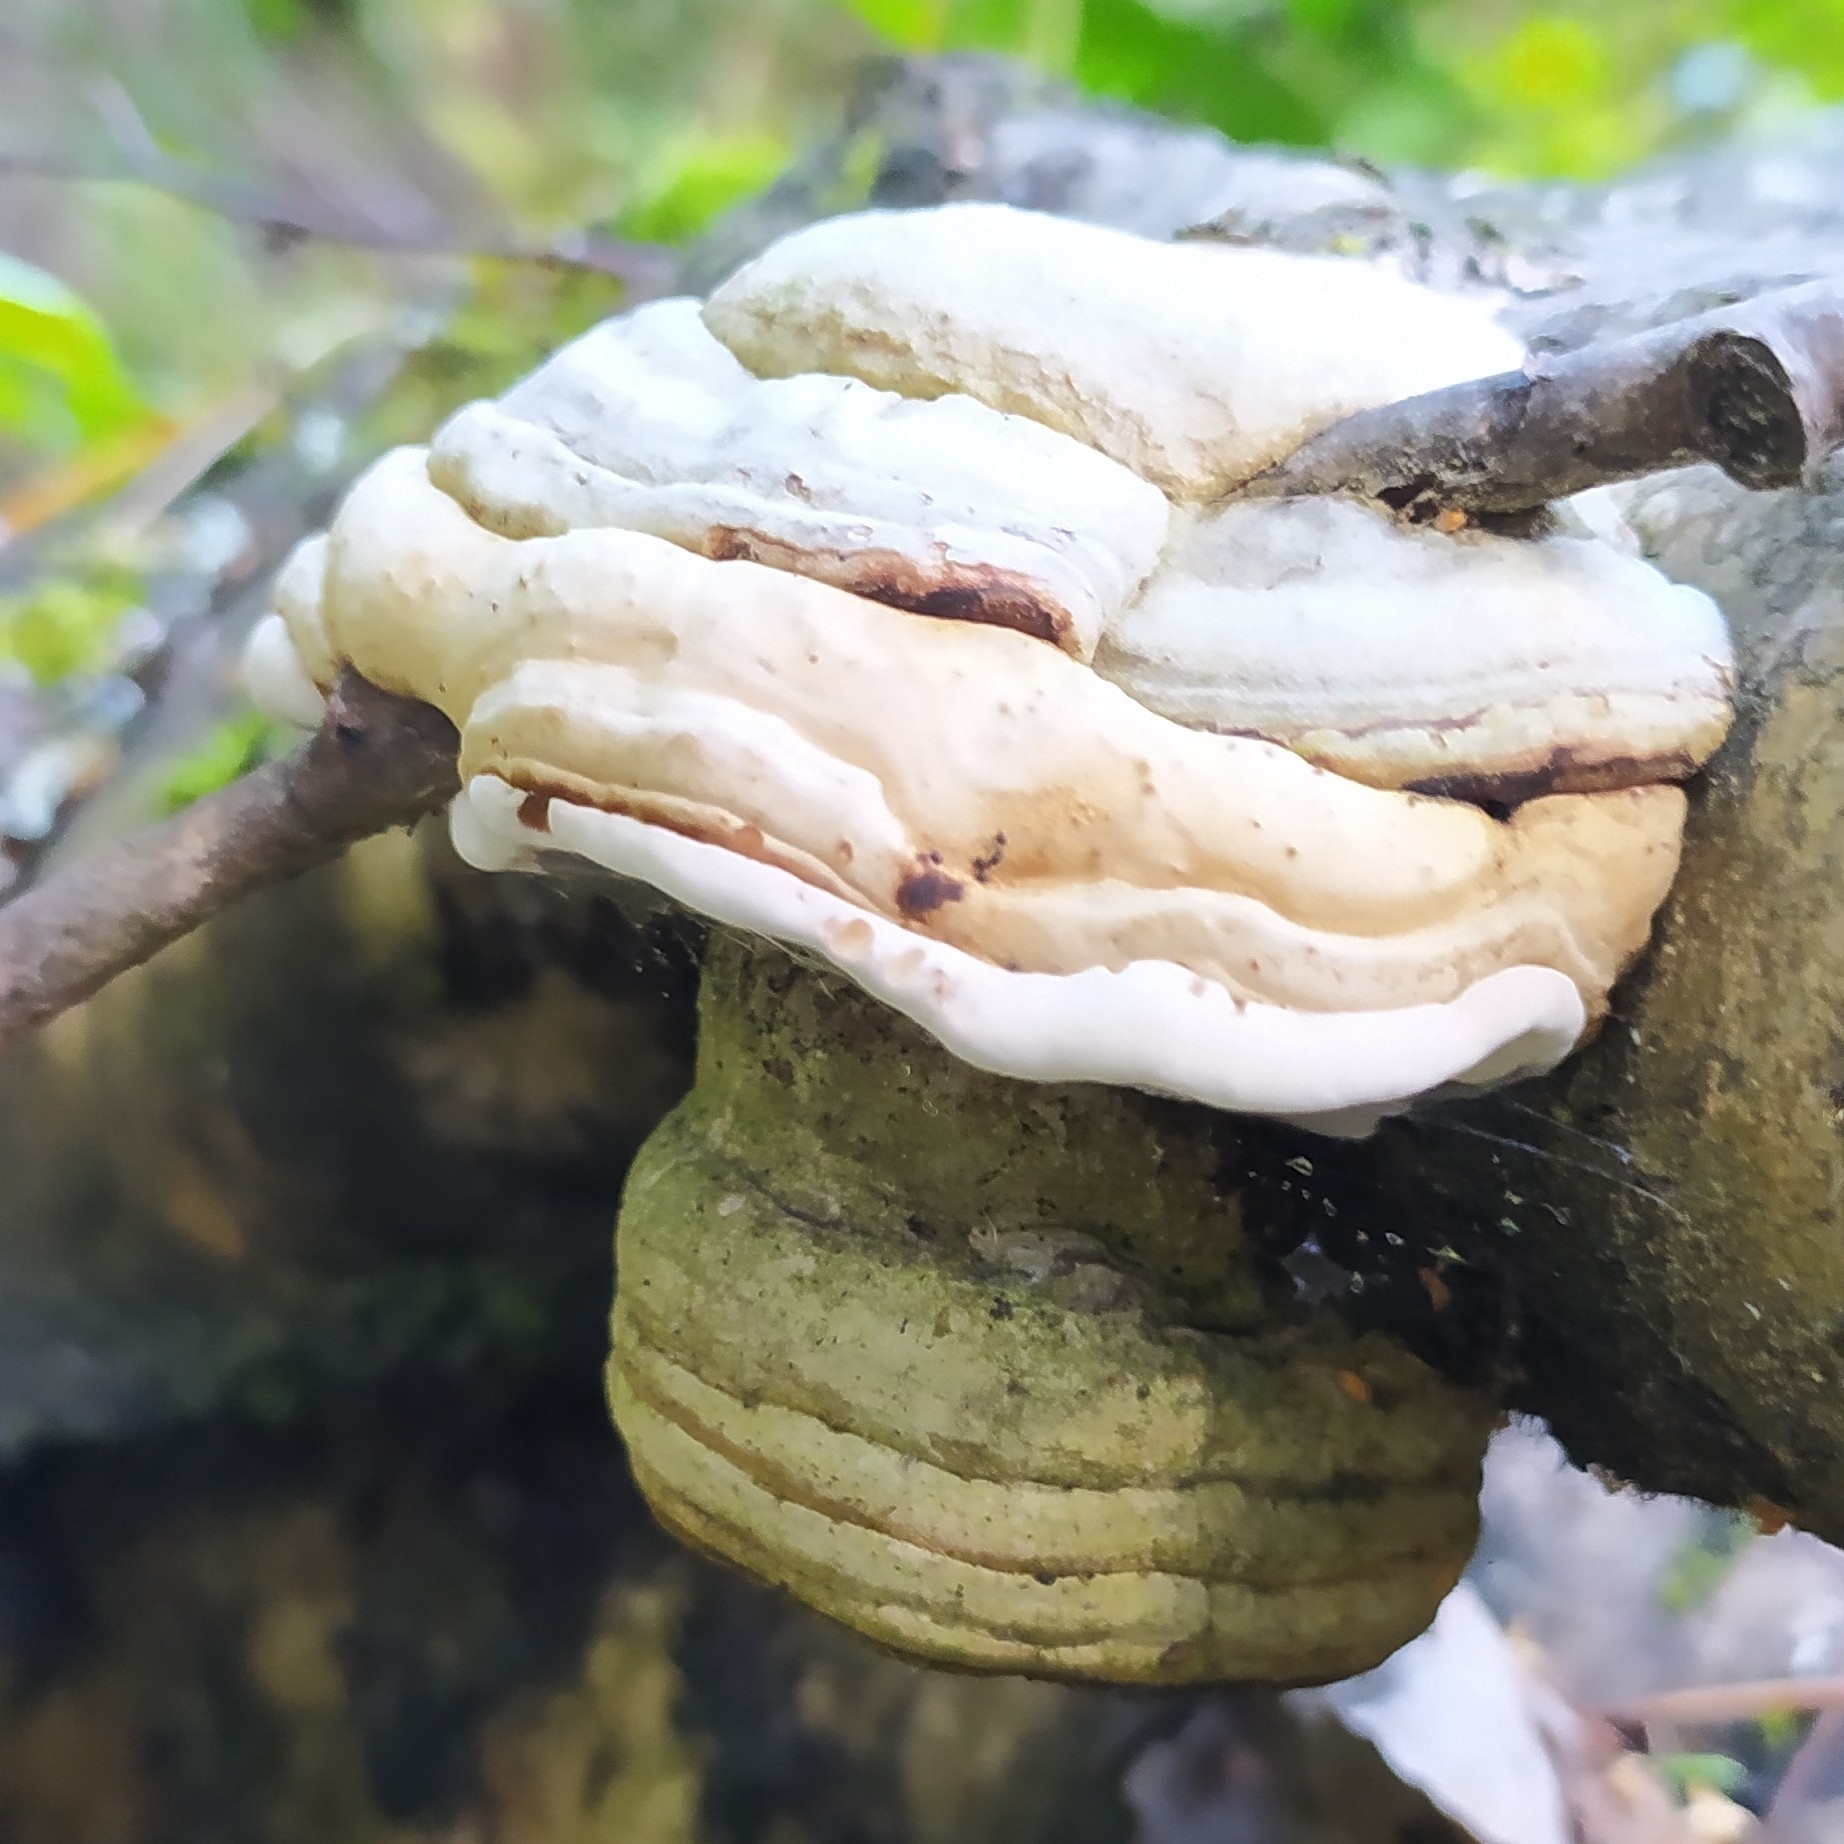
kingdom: Fungi
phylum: Basidiomycota
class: Agaricomycetes
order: Polyporales
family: Polyporaceae
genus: Fomes
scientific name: Fomes fomentarius
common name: Hoof fungus
